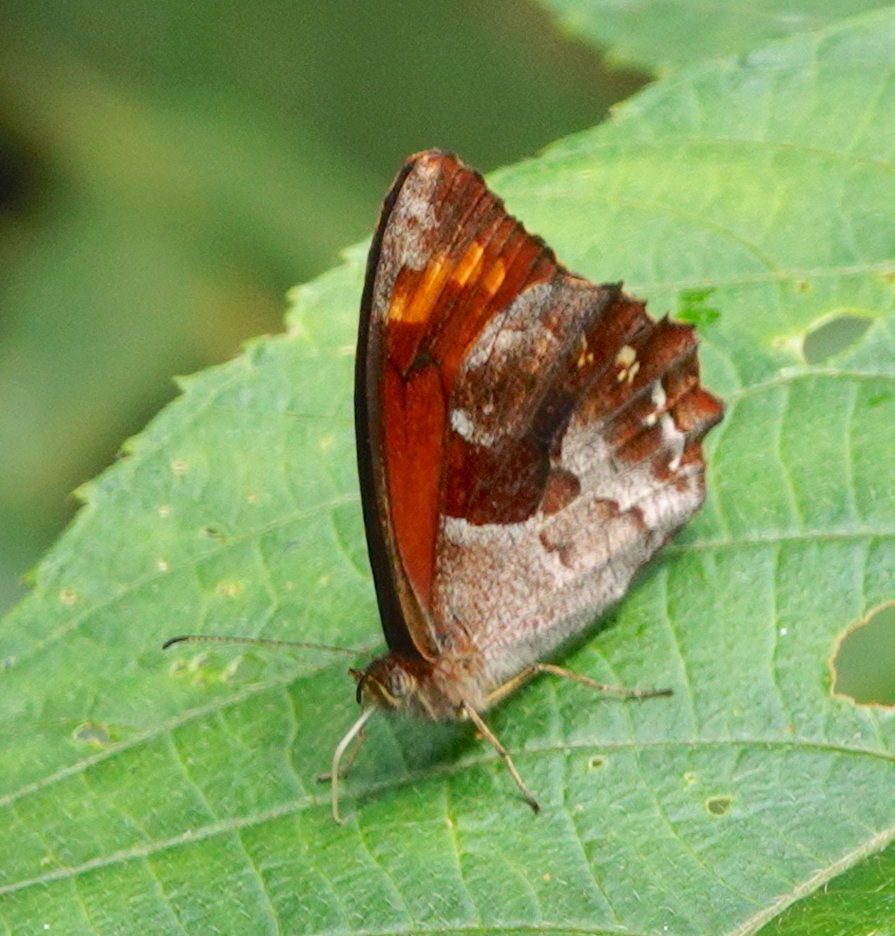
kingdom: Animalia
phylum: Arthropoda
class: Insecta
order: Lepidoptera
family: Nymphalidae
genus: Lasiophila
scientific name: Lasiophila ciris
